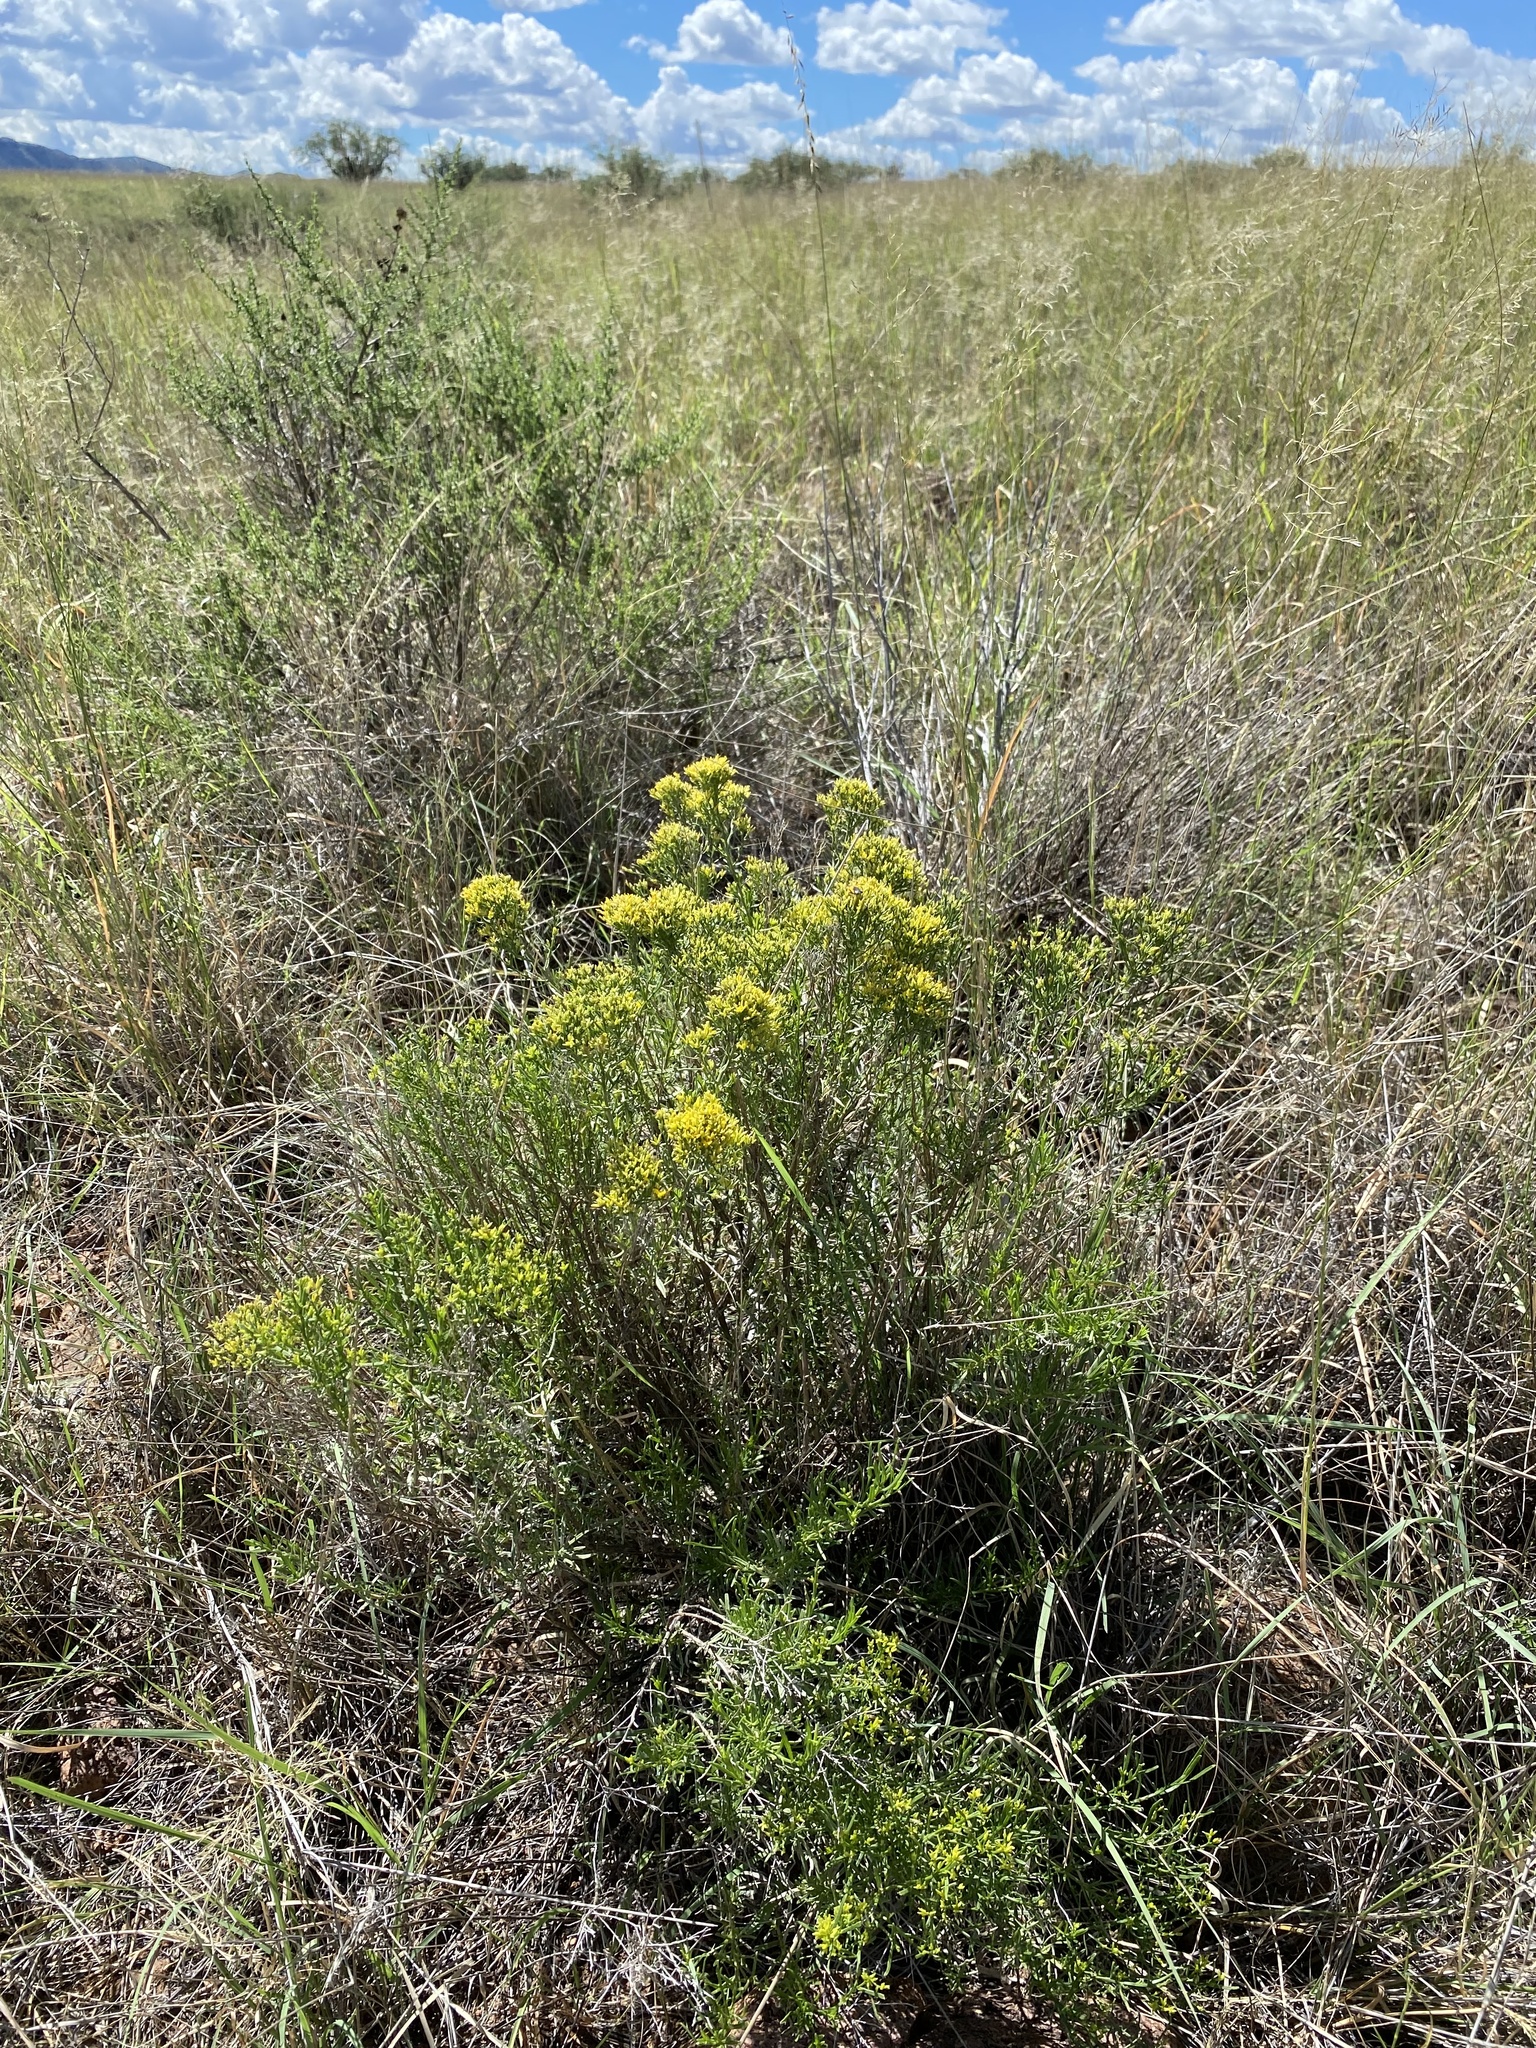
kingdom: Plantae
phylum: Tracheophyta
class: Magnoliopsida
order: Asterales
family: Asteraceae
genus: Gutierrezia
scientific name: Gutierrezia microcephala
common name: Thread snakeweed
